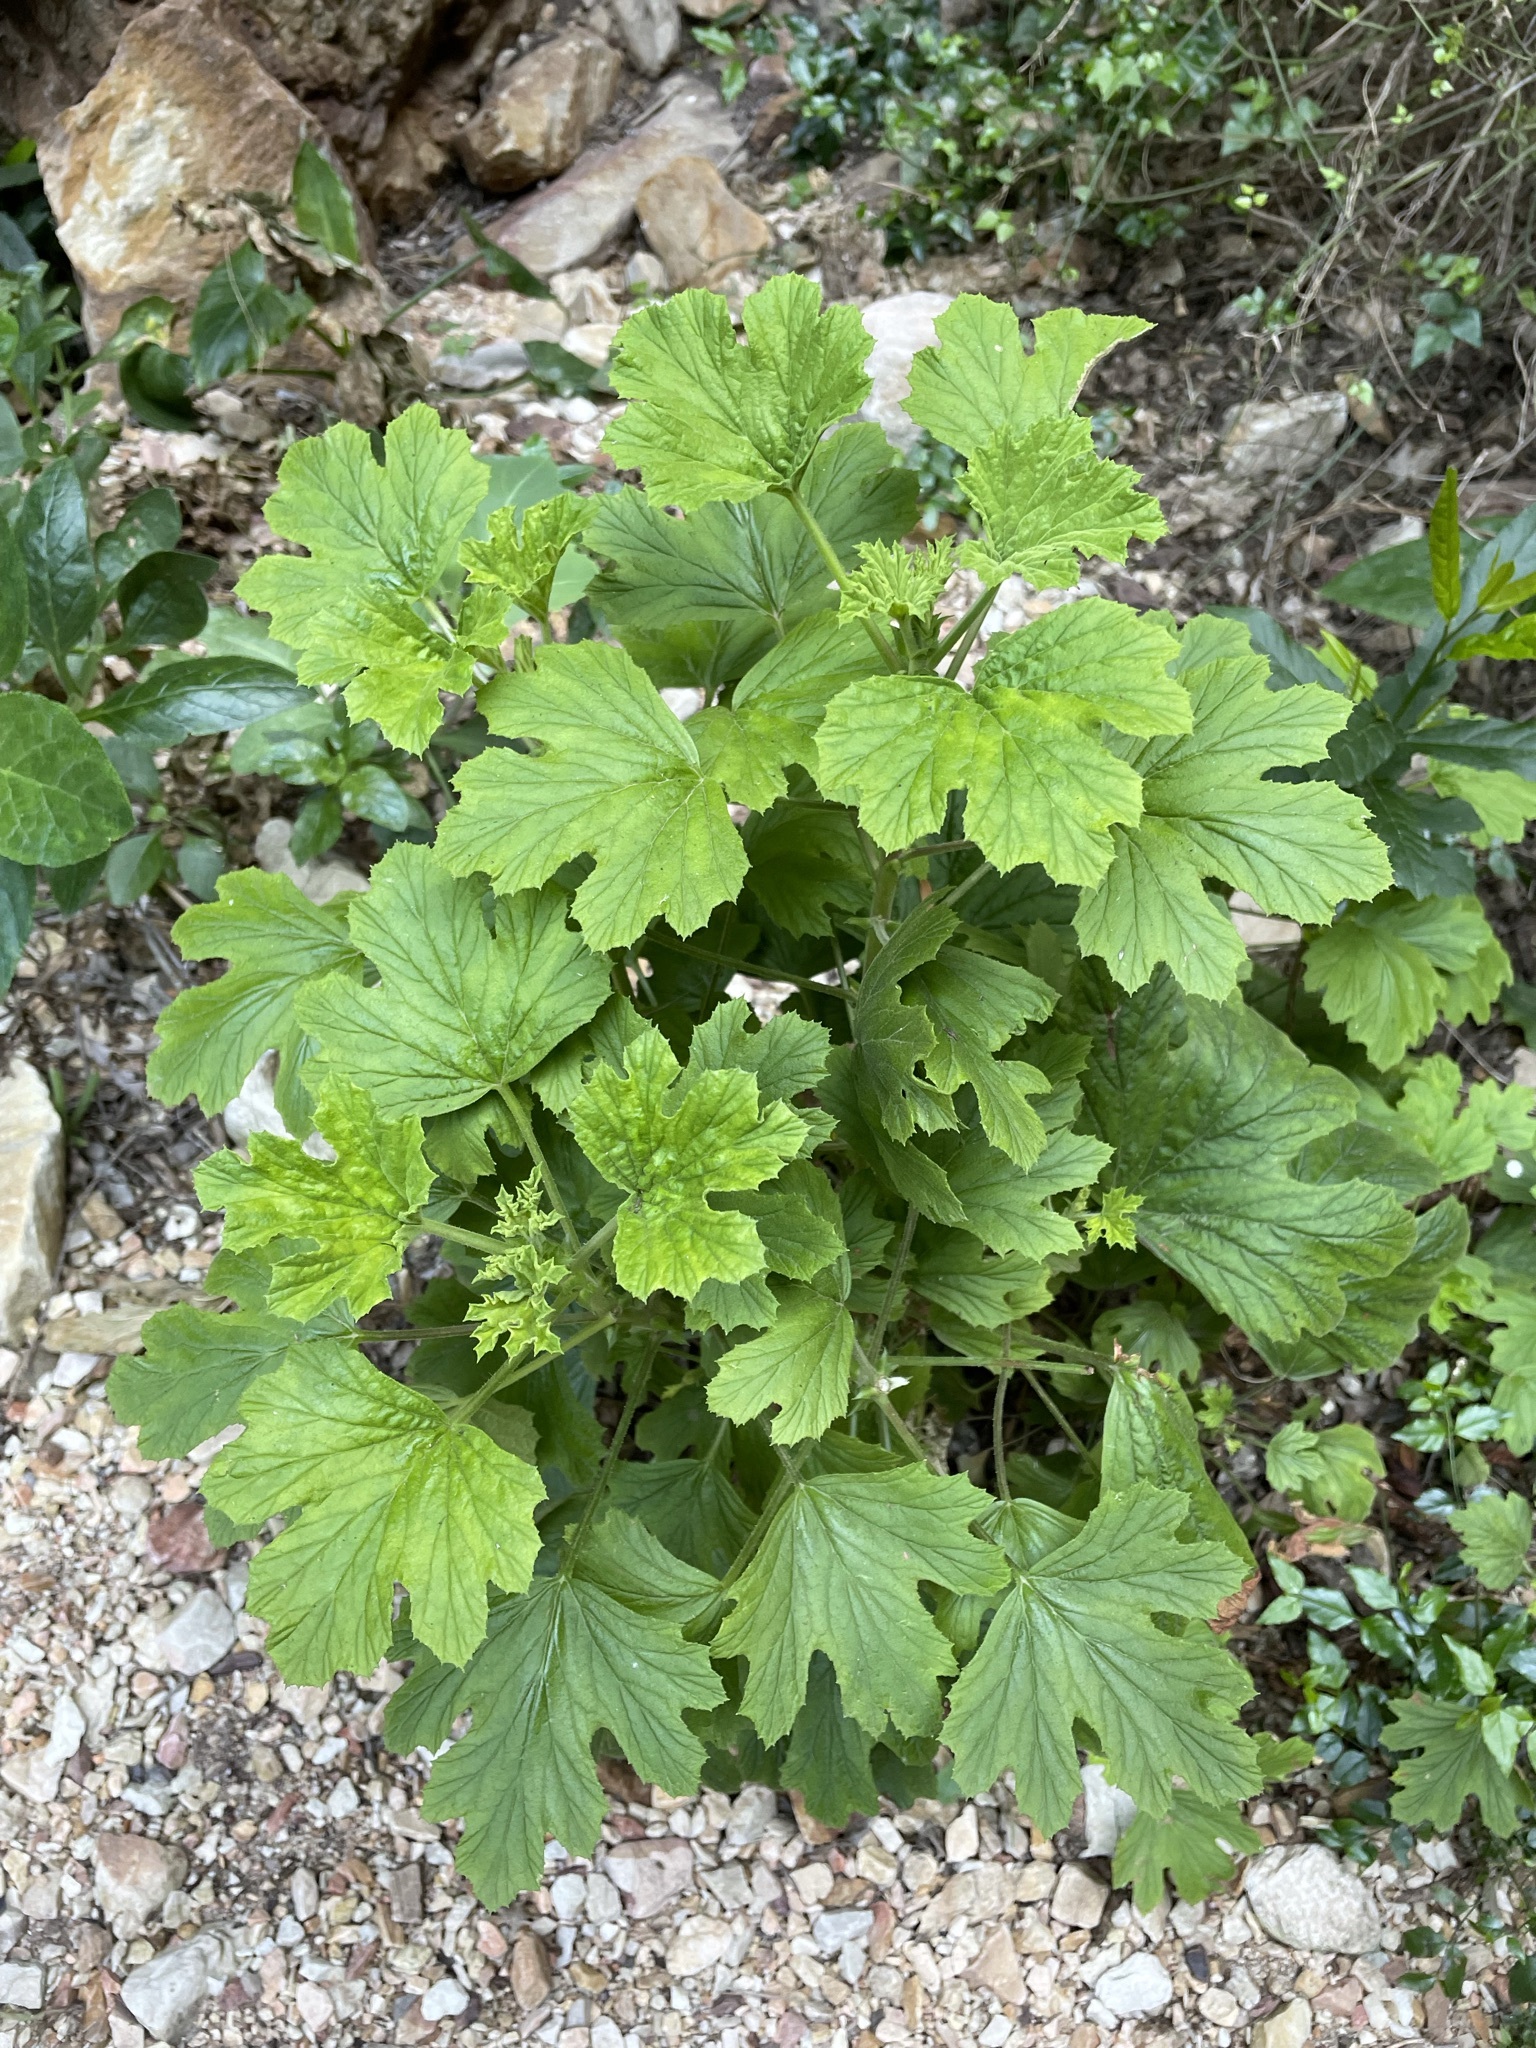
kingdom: Plantae
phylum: Tracheophyta
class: Magnoliopsida
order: Geraniales
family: Geraniaceae
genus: Pelargonium
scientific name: Pelargonium ribifolium
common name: Currant-leaf pelargonium
